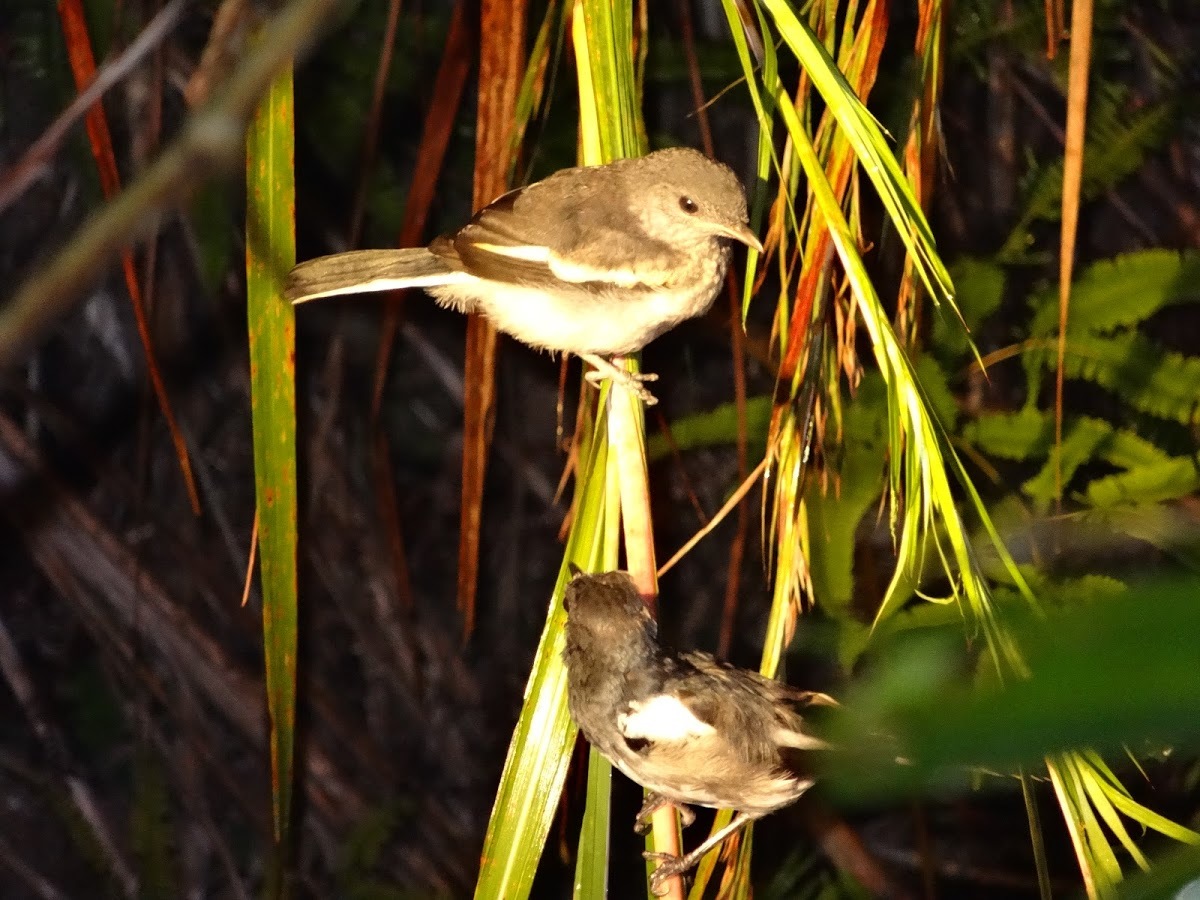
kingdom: Animalia
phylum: Chordata
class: Aves
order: Passeriformes
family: Muscicapidae
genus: Copsychus
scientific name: Copsychus saularis
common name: Oriental magpie-robin
